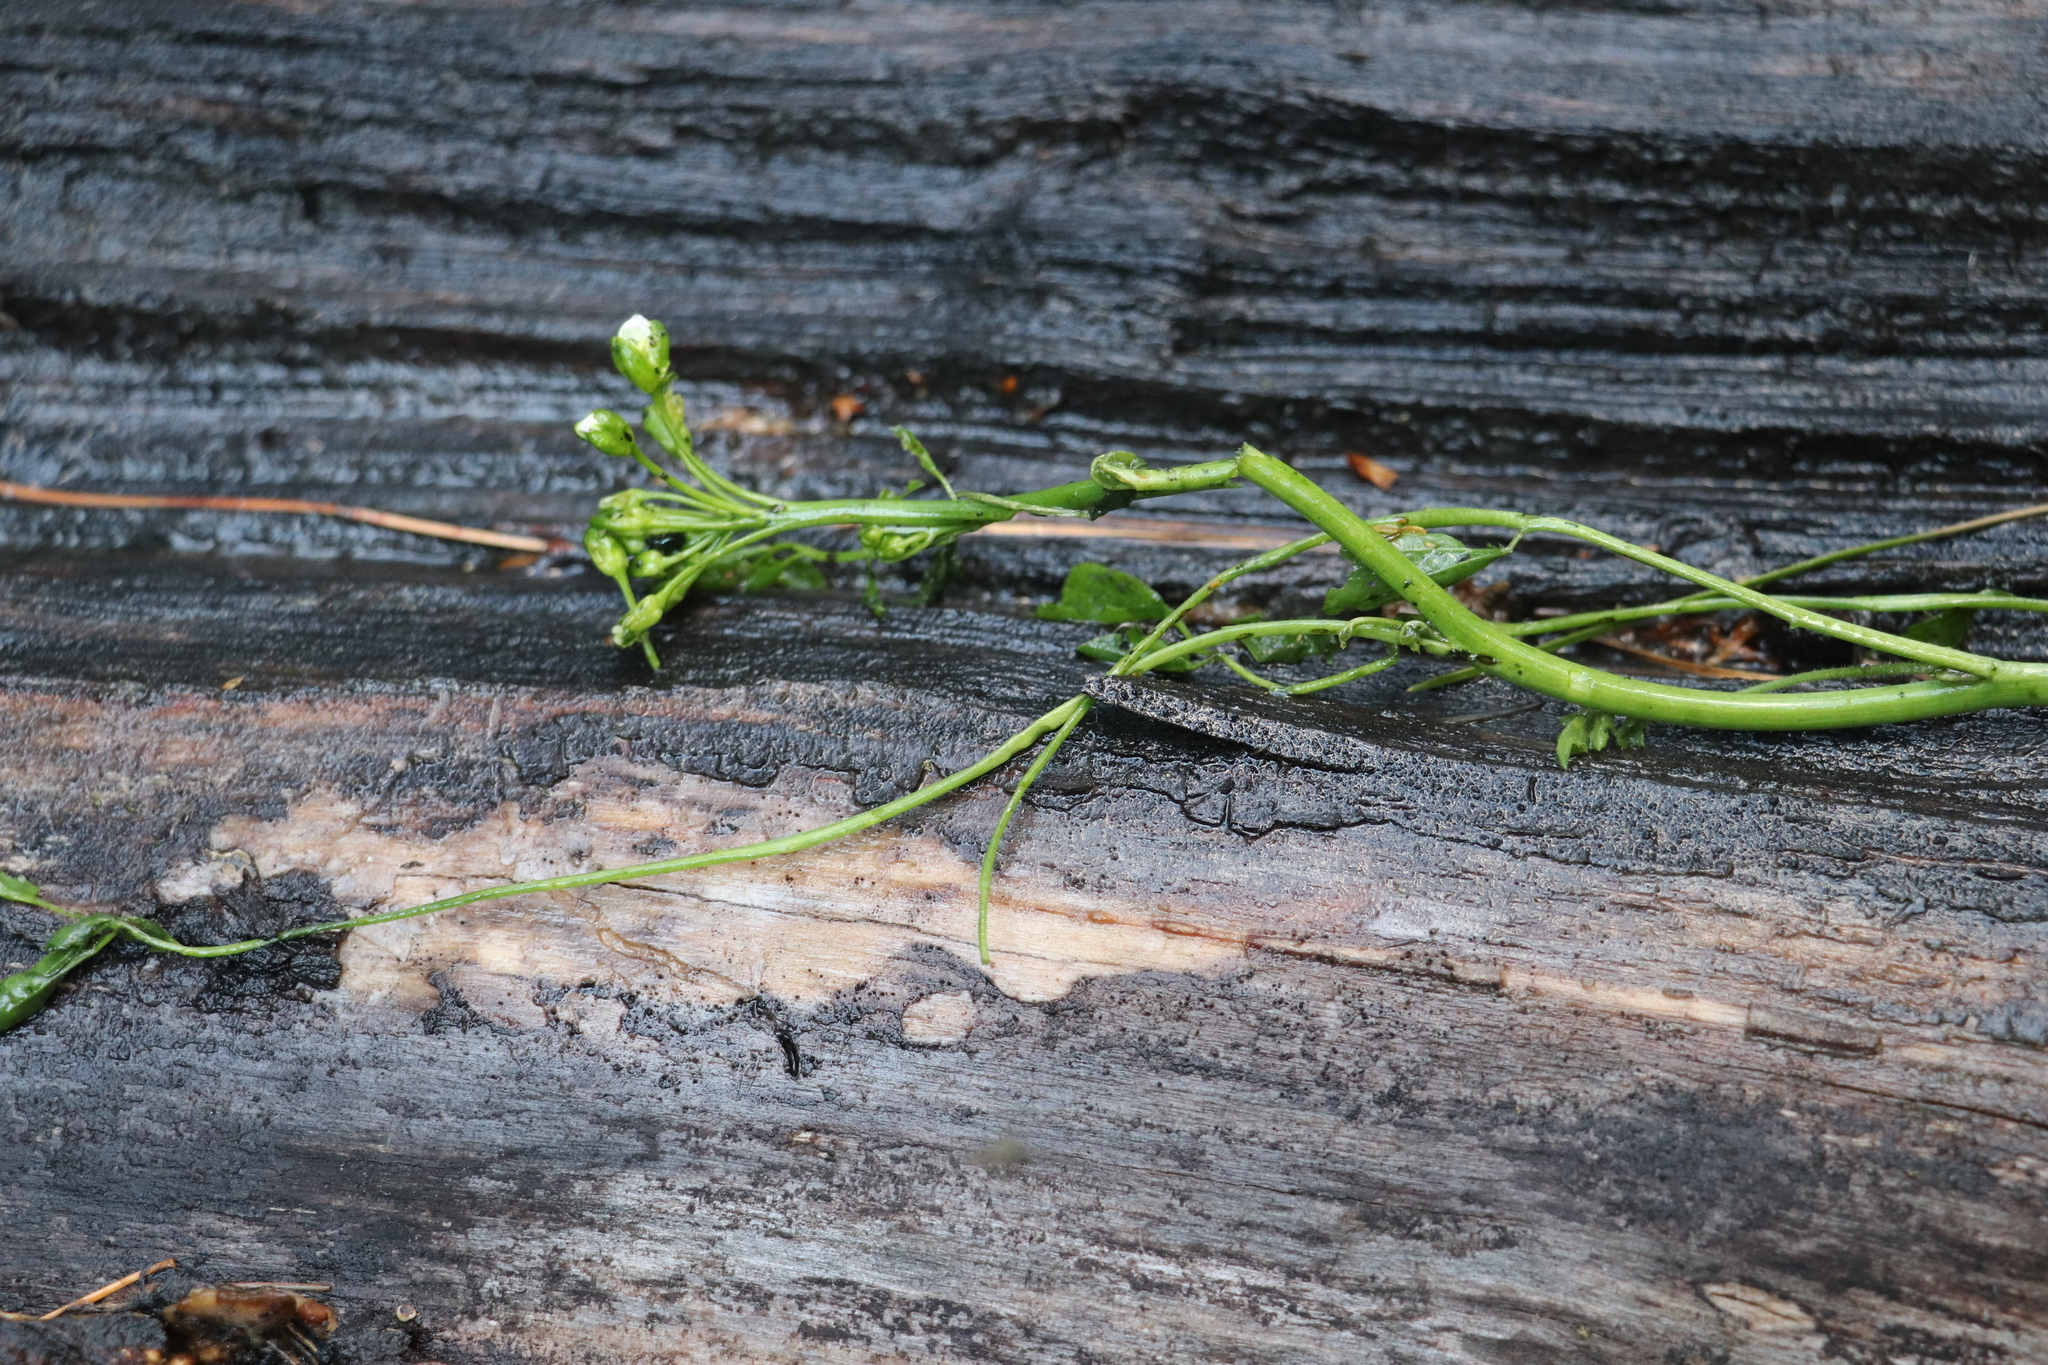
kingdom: Plantae
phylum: Tracheophyta
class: Magnoliopsida
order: Brassicales
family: Brassicaceae
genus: Cardamine
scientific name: Cardamine dentata
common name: Toothed bittercress
